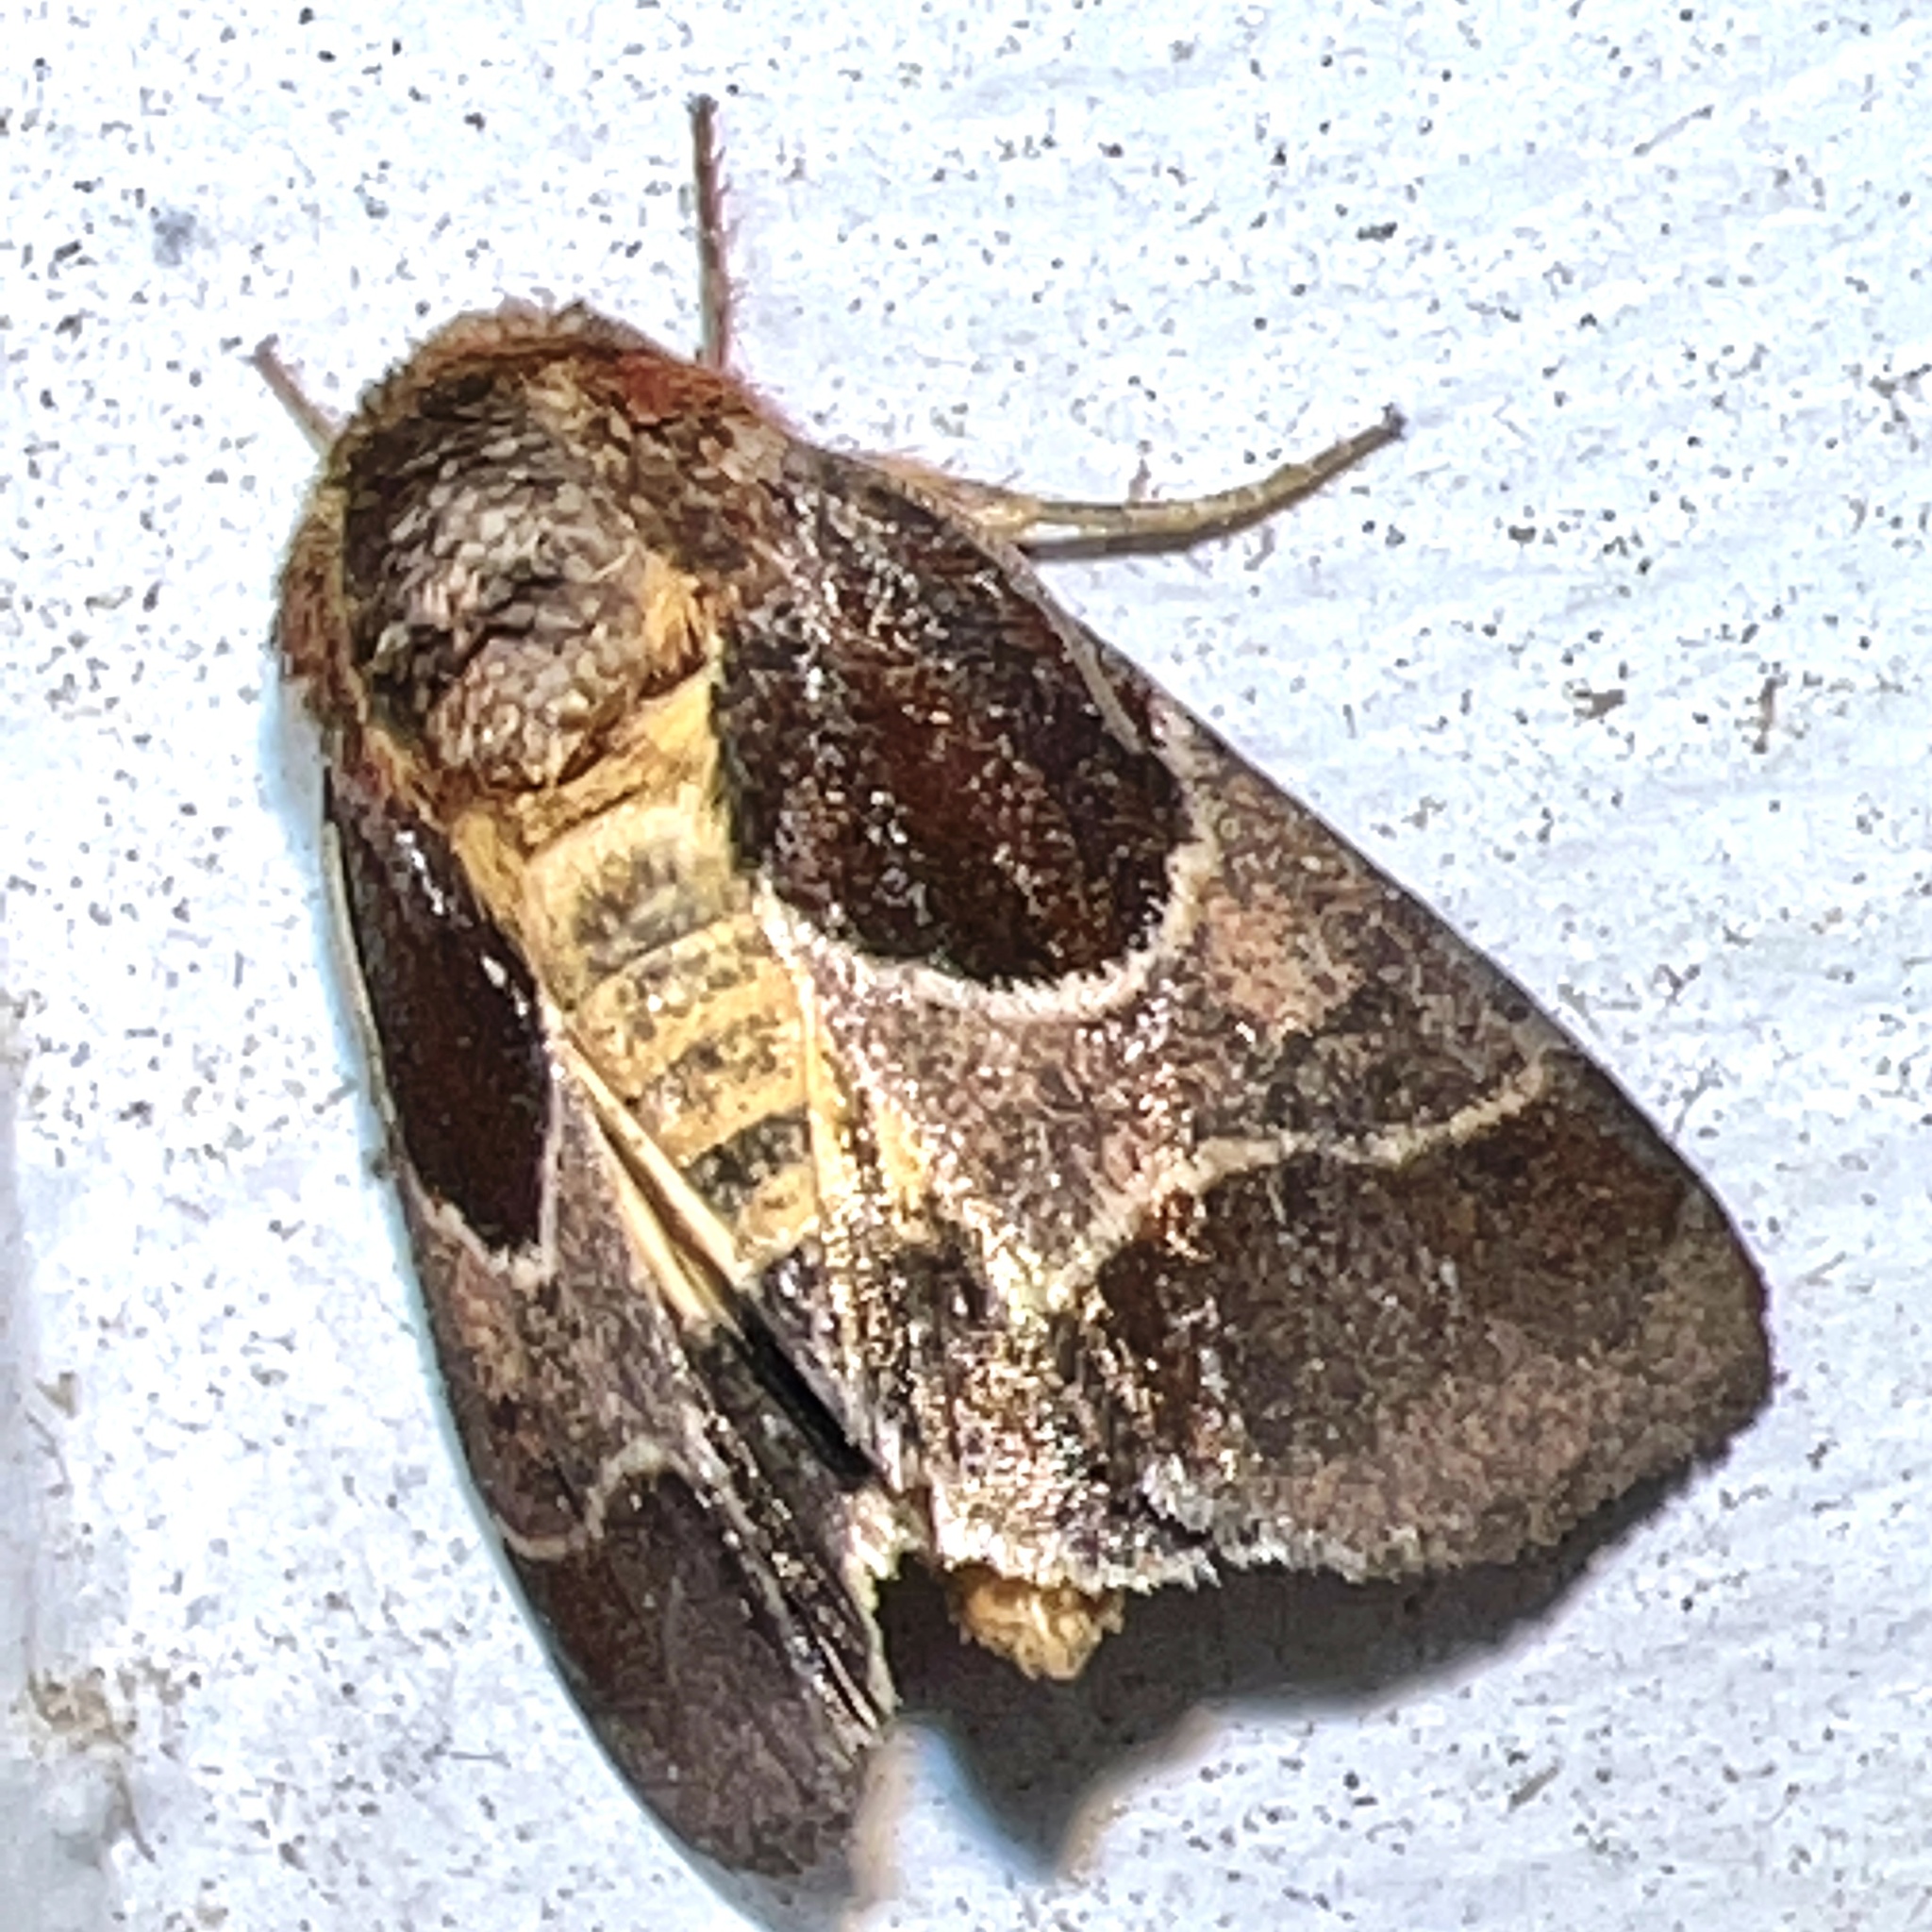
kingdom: Animalia
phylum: Arthropoda
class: Insecta
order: Lepidoptera
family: Noctuidae
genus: Schinia
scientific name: Schinia arcigera
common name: Arcigera flower moth
